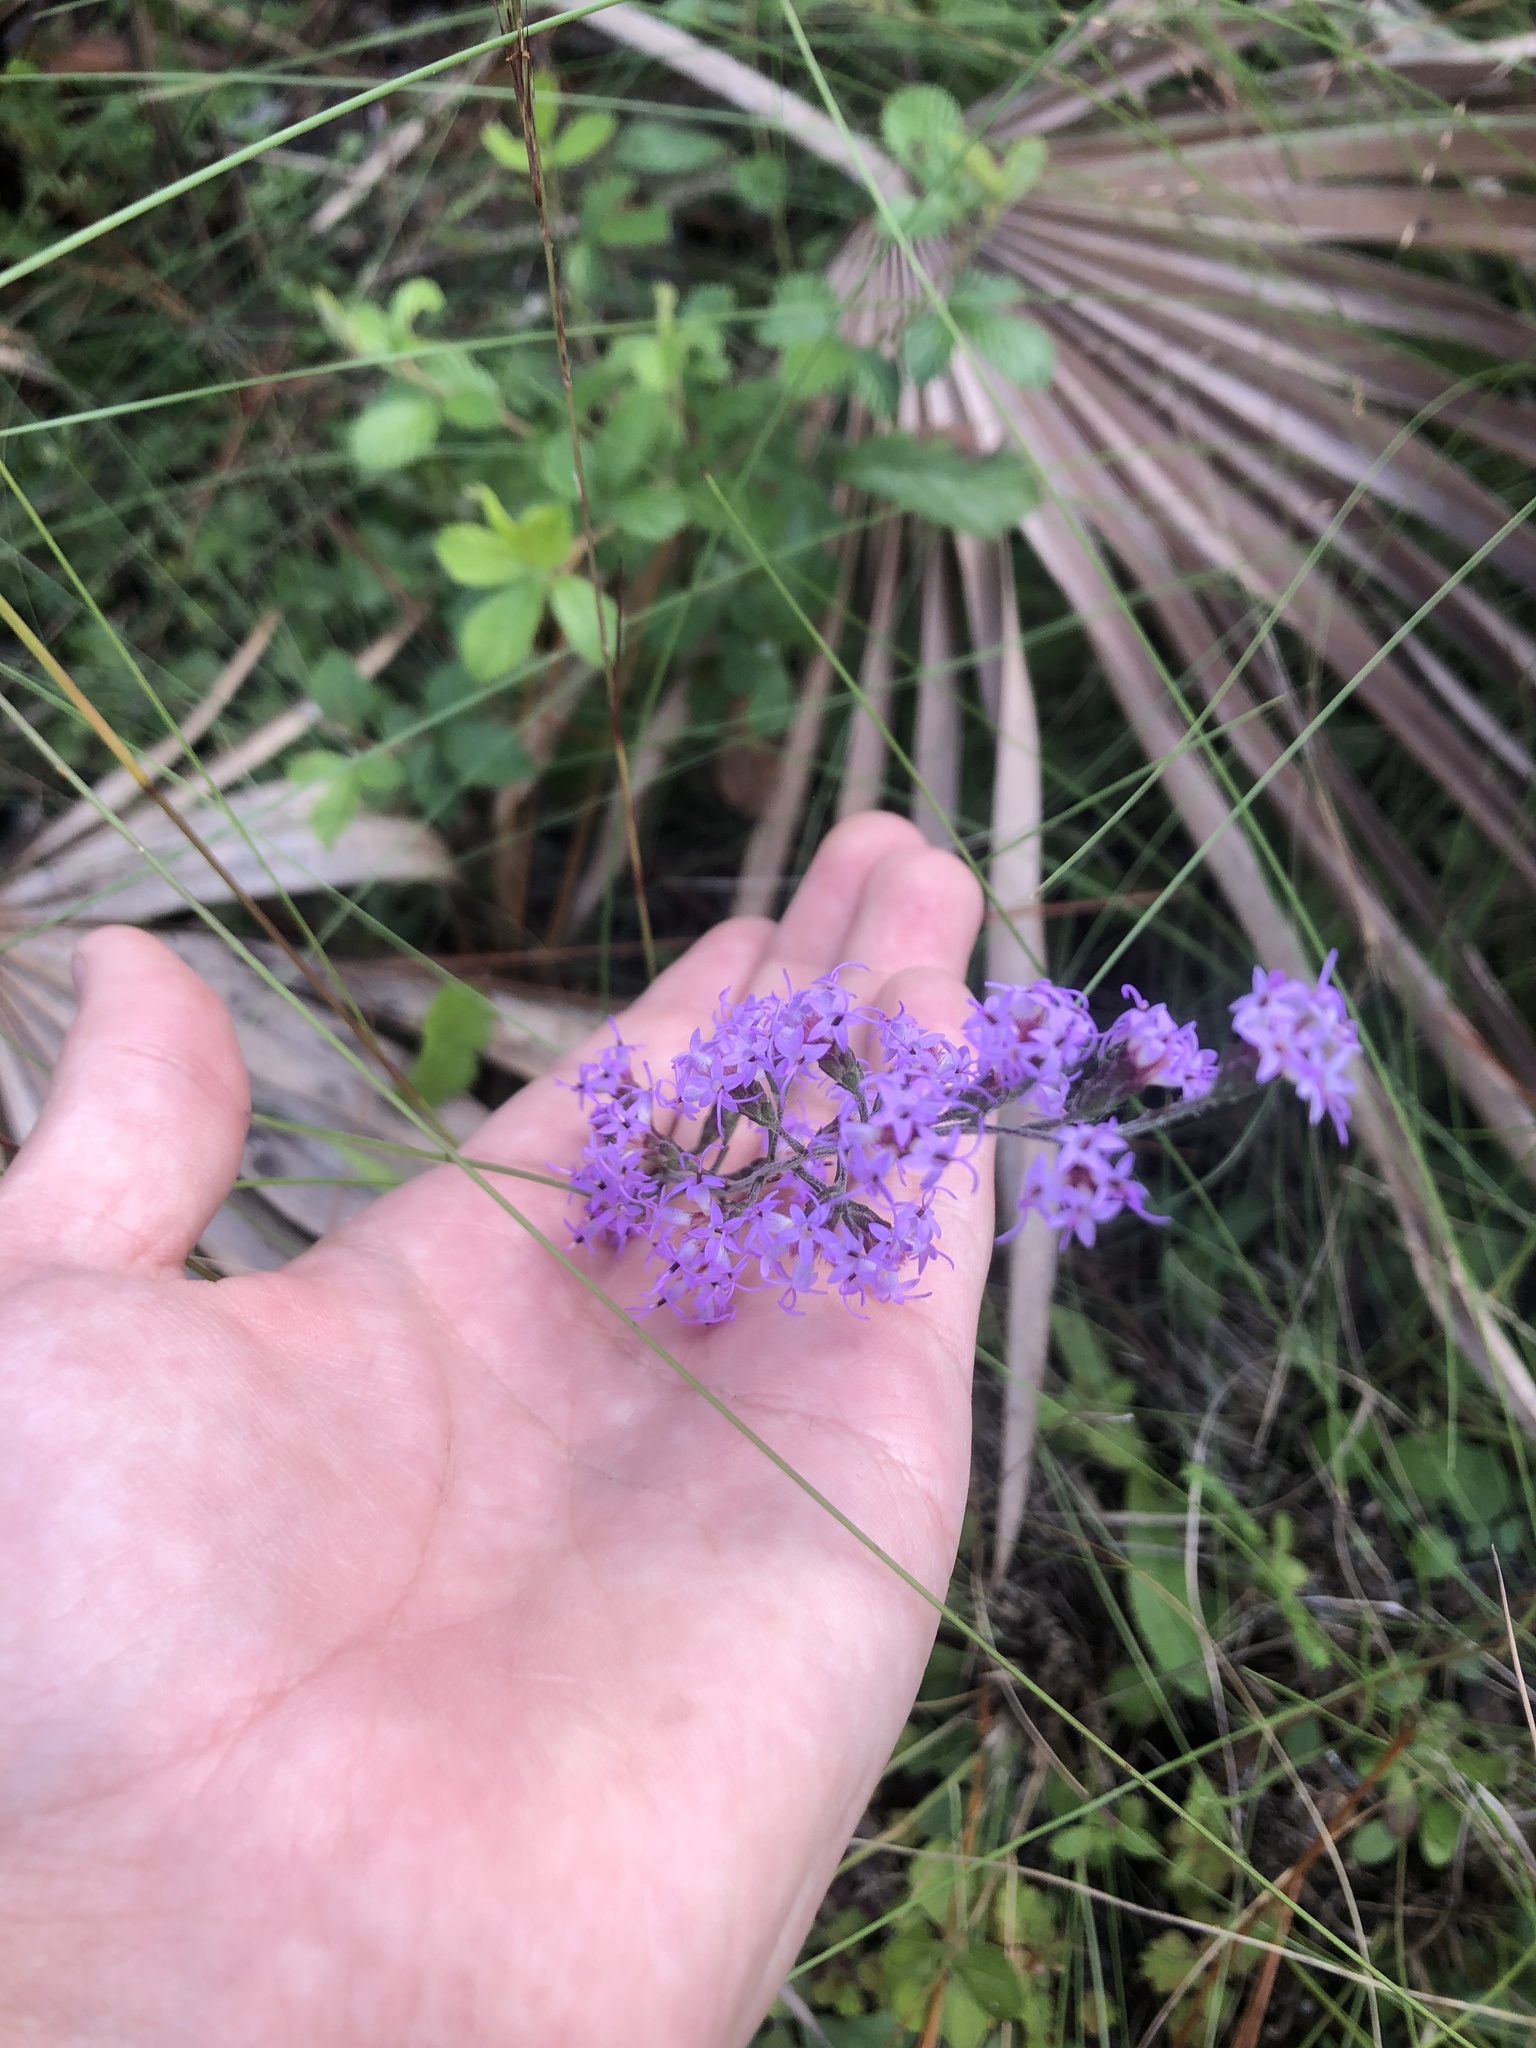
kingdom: Plantae
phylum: Tracheophyta
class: Magnoliopsida
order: Asterales
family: Asteraceae
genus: Liatris
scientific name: Liatris gracilis
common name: Slender gayfeather
